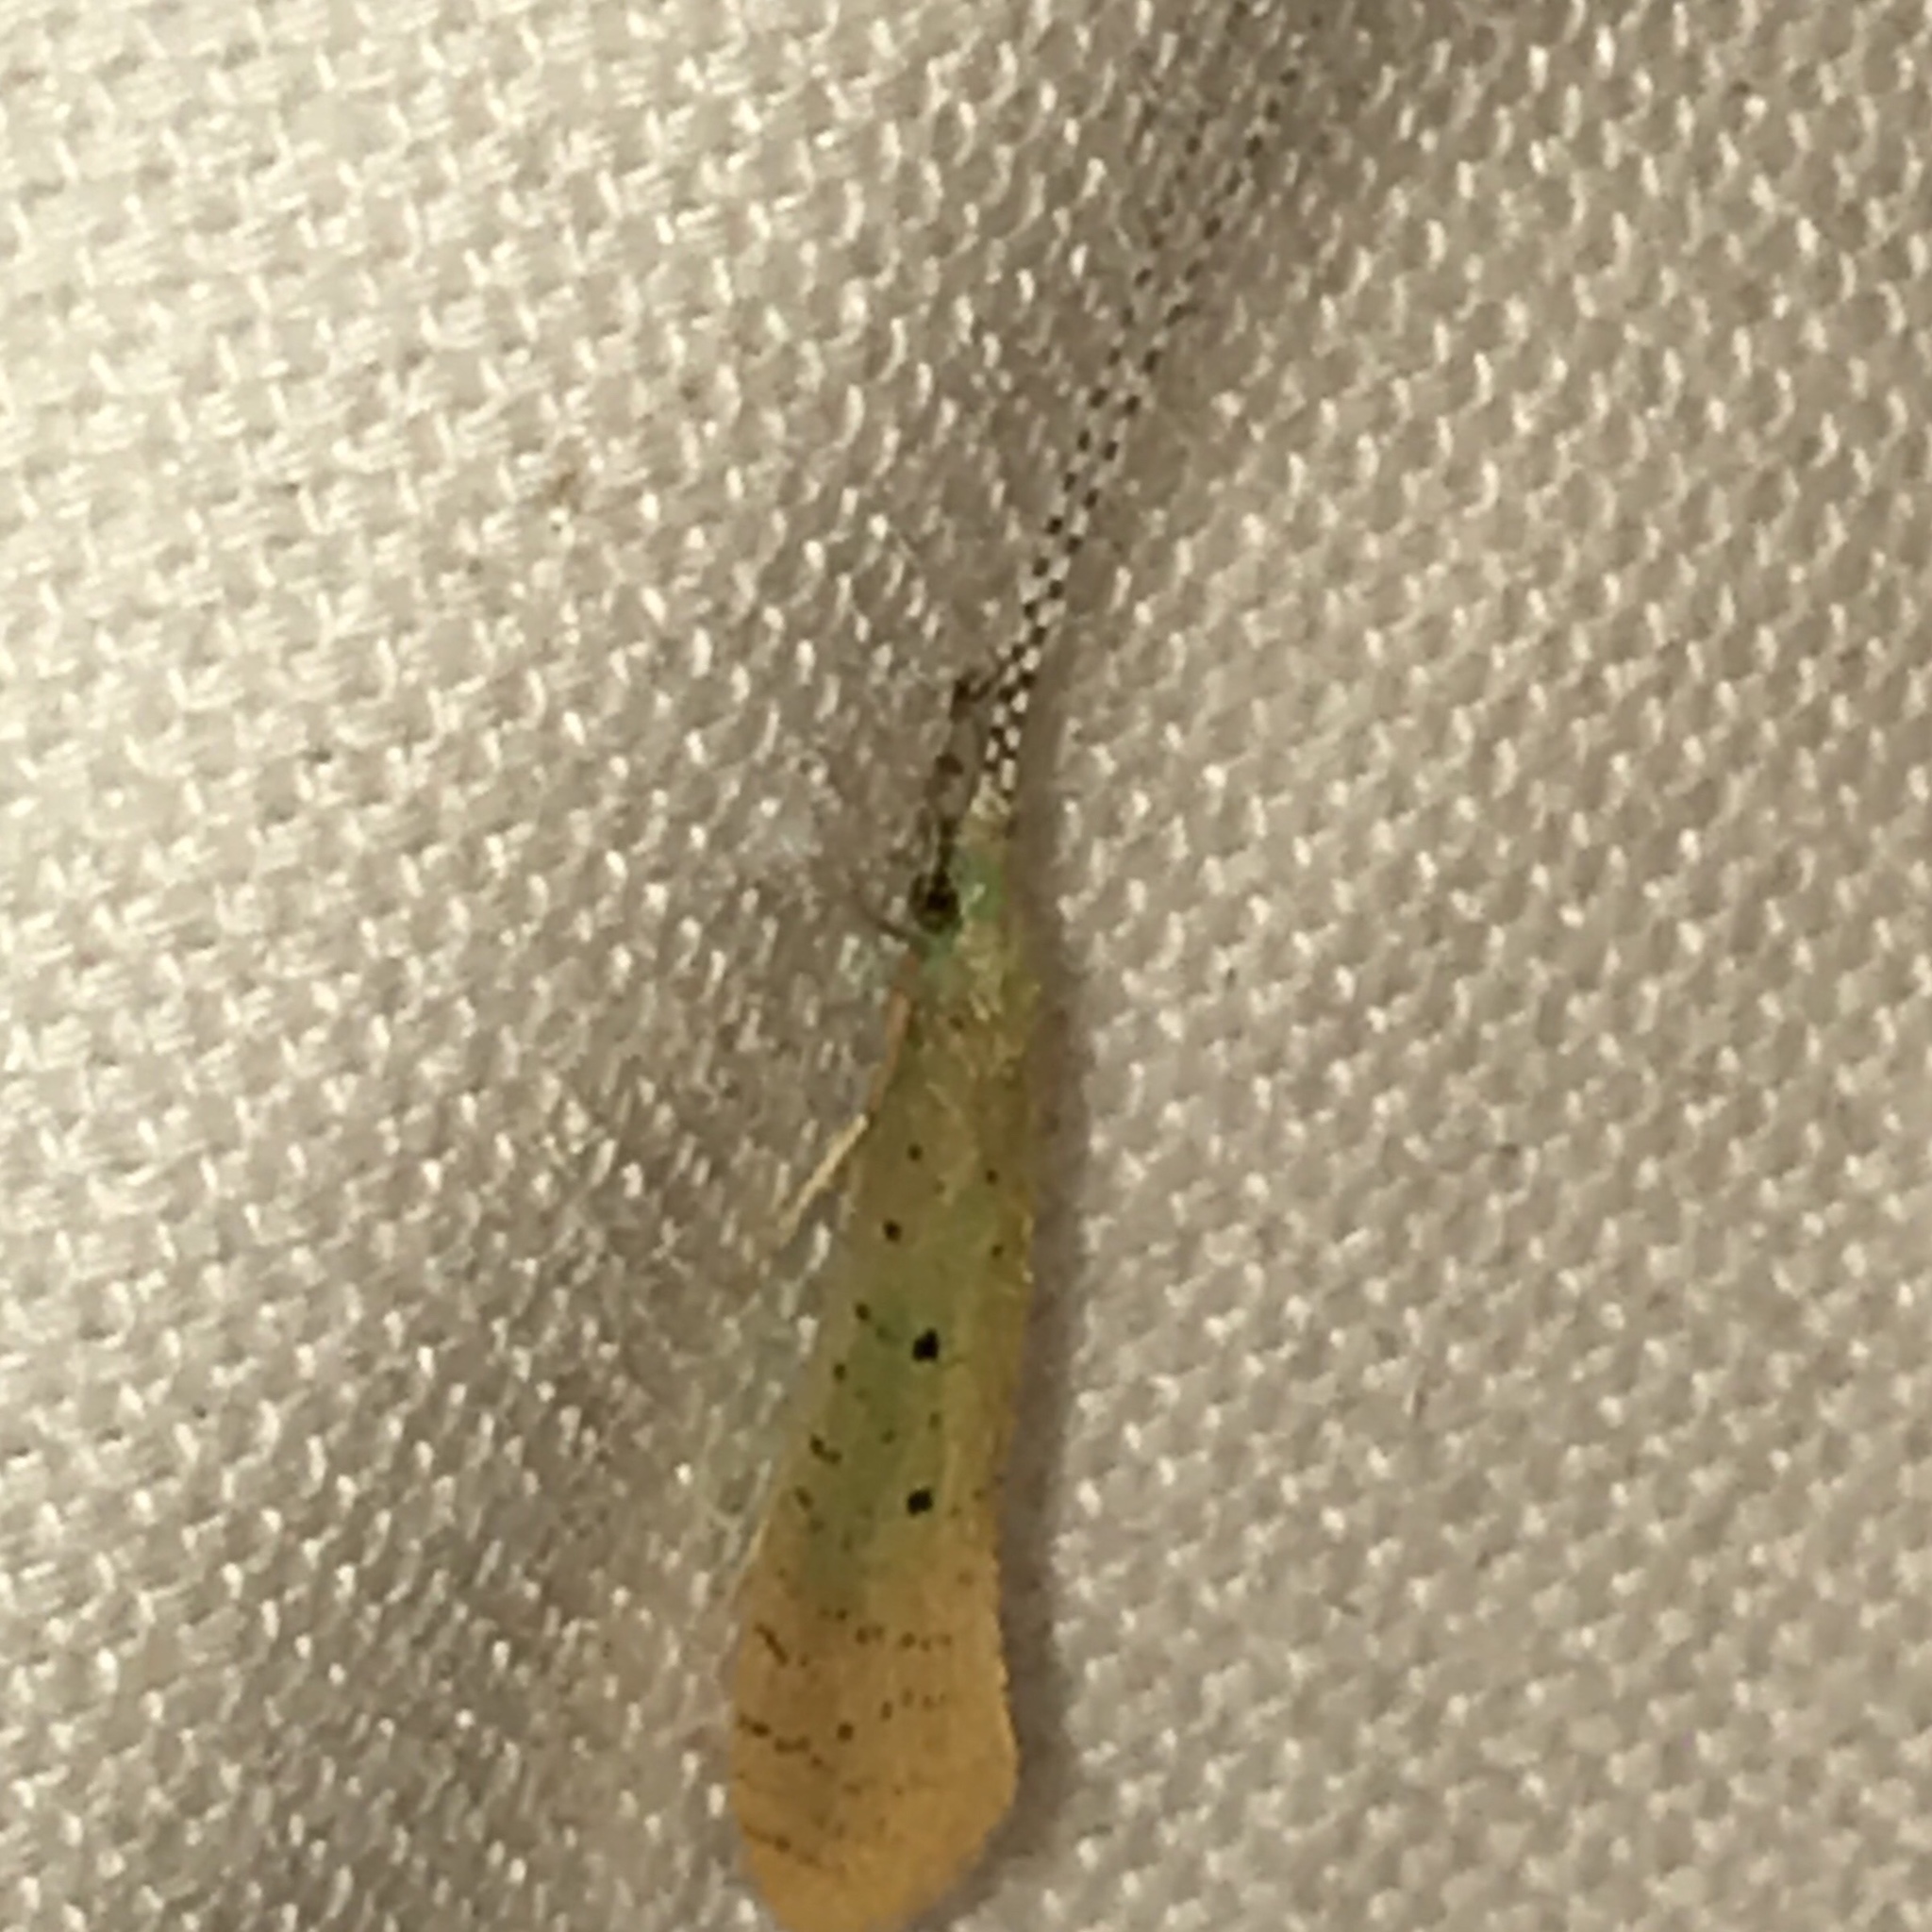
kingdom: Animalia
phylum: Arthropoda
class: Insecta
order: Trichoptera
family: Leptoceridae
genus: Nectopsyche
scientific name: Nectopsyche pavida
